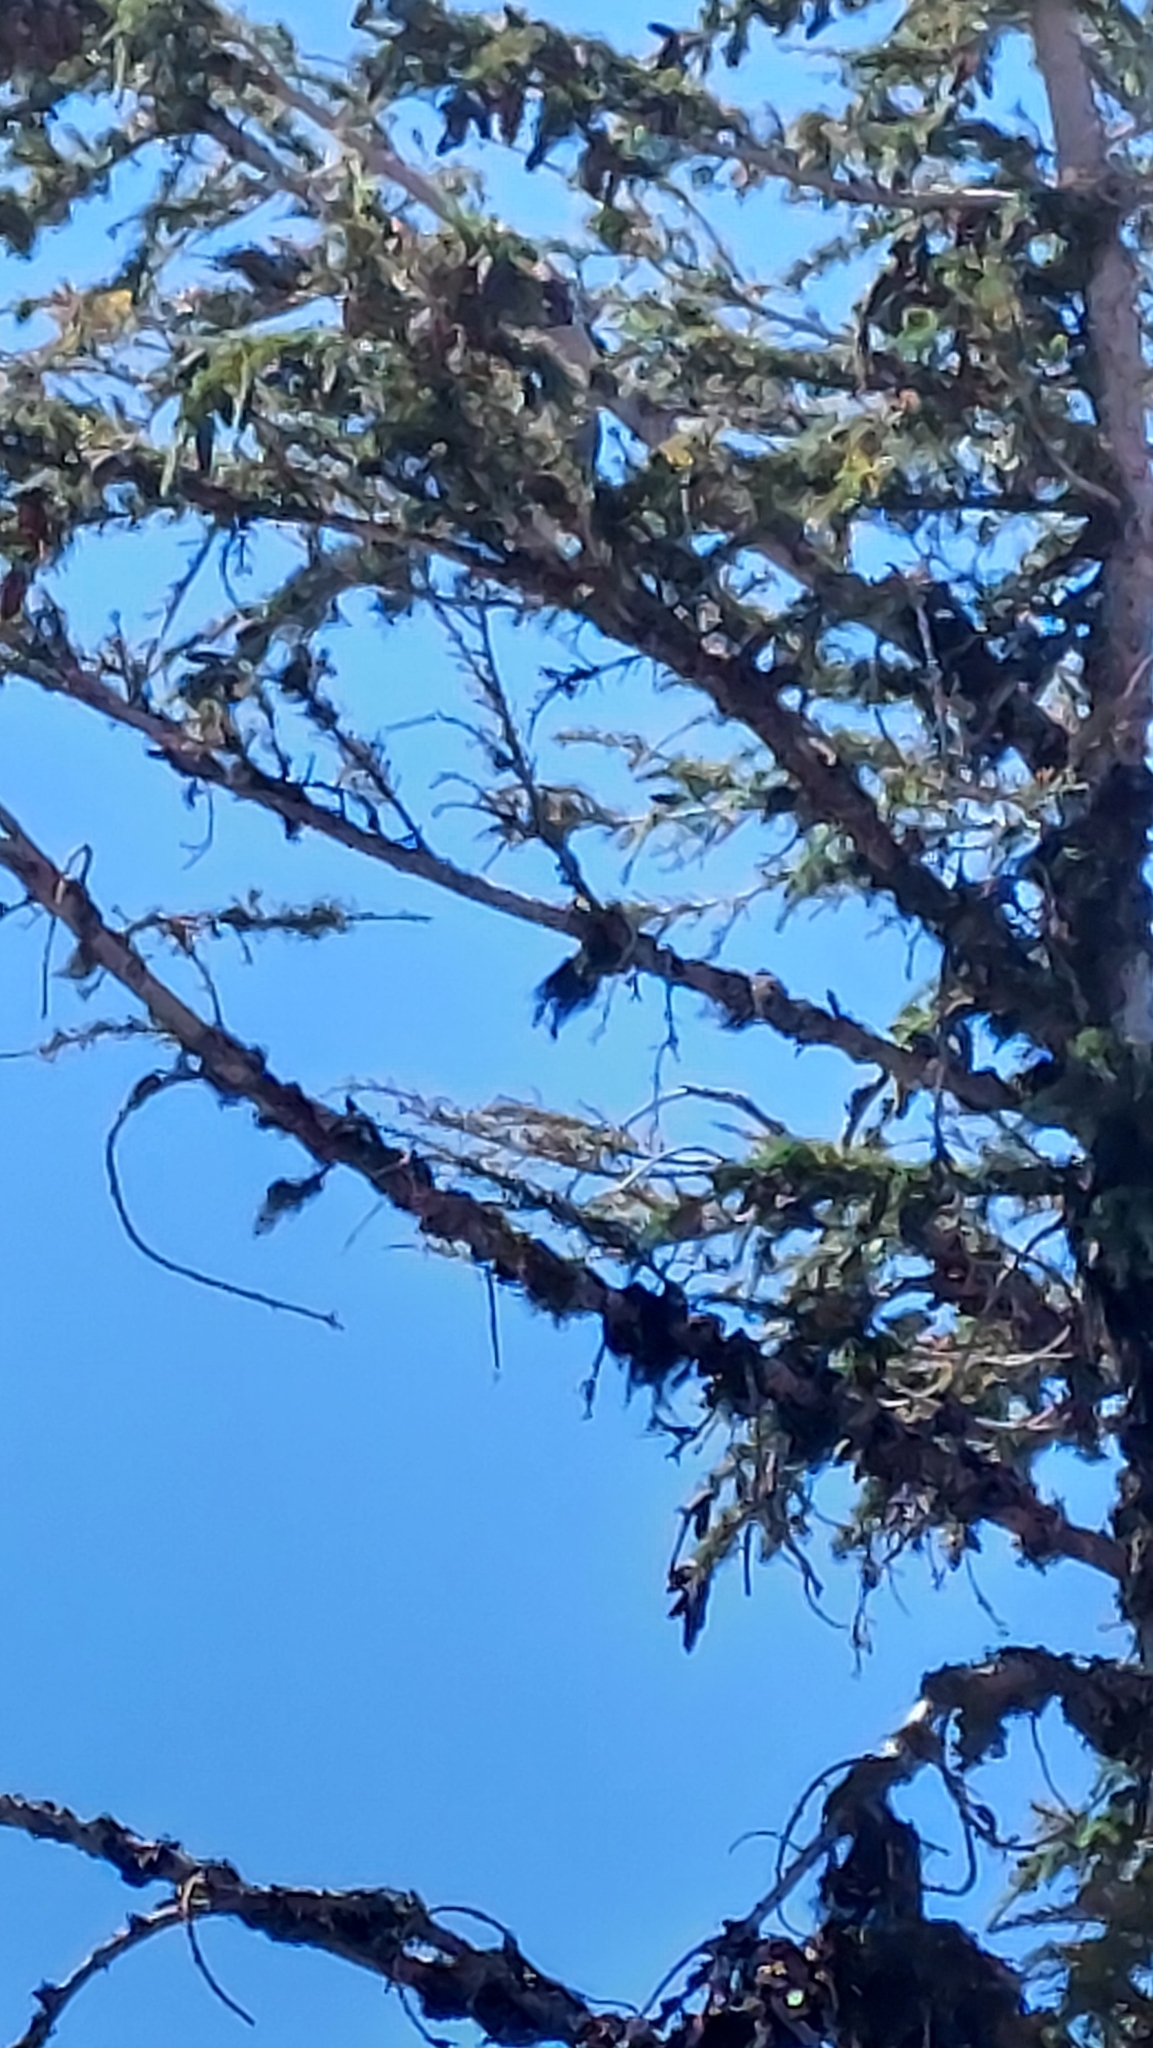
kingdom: Animalia
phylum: Chordata
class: Aves
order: Passeriformes
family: Corvidae
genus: Perisoreus
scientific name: Perisoreus canadensis
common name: Gray jay
